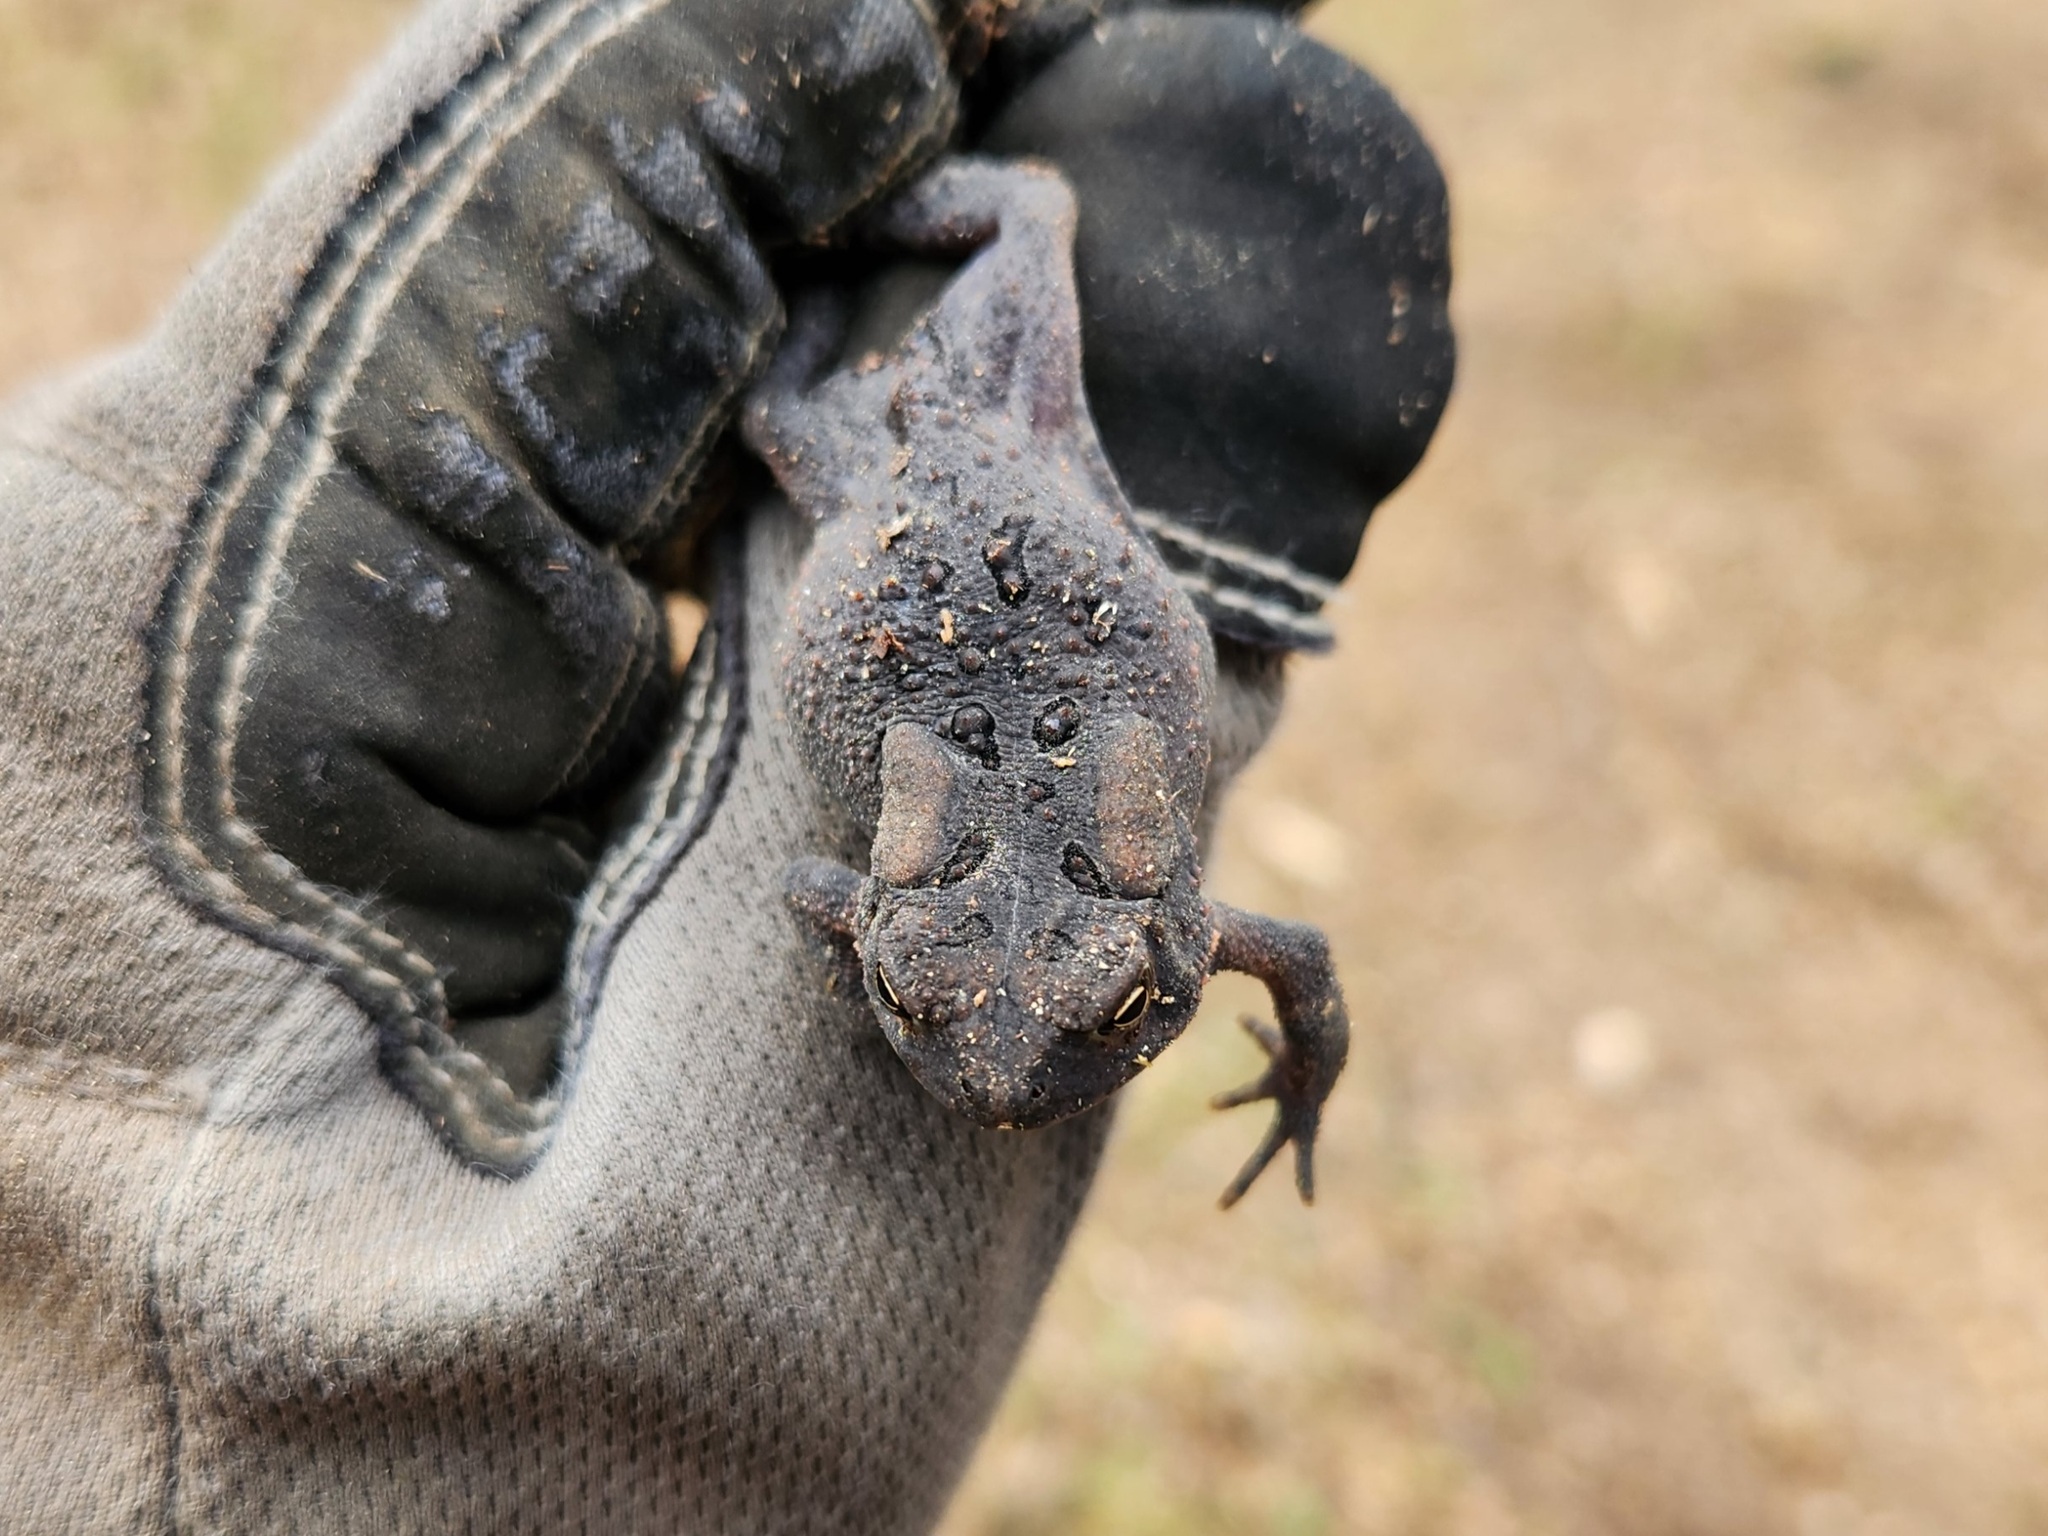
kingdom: Animalia
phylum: Chordata
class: Amphibia
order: Anura
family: Bufonidae
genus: Anaxyrus
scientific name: Anaxyrus americanus
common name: American toad
